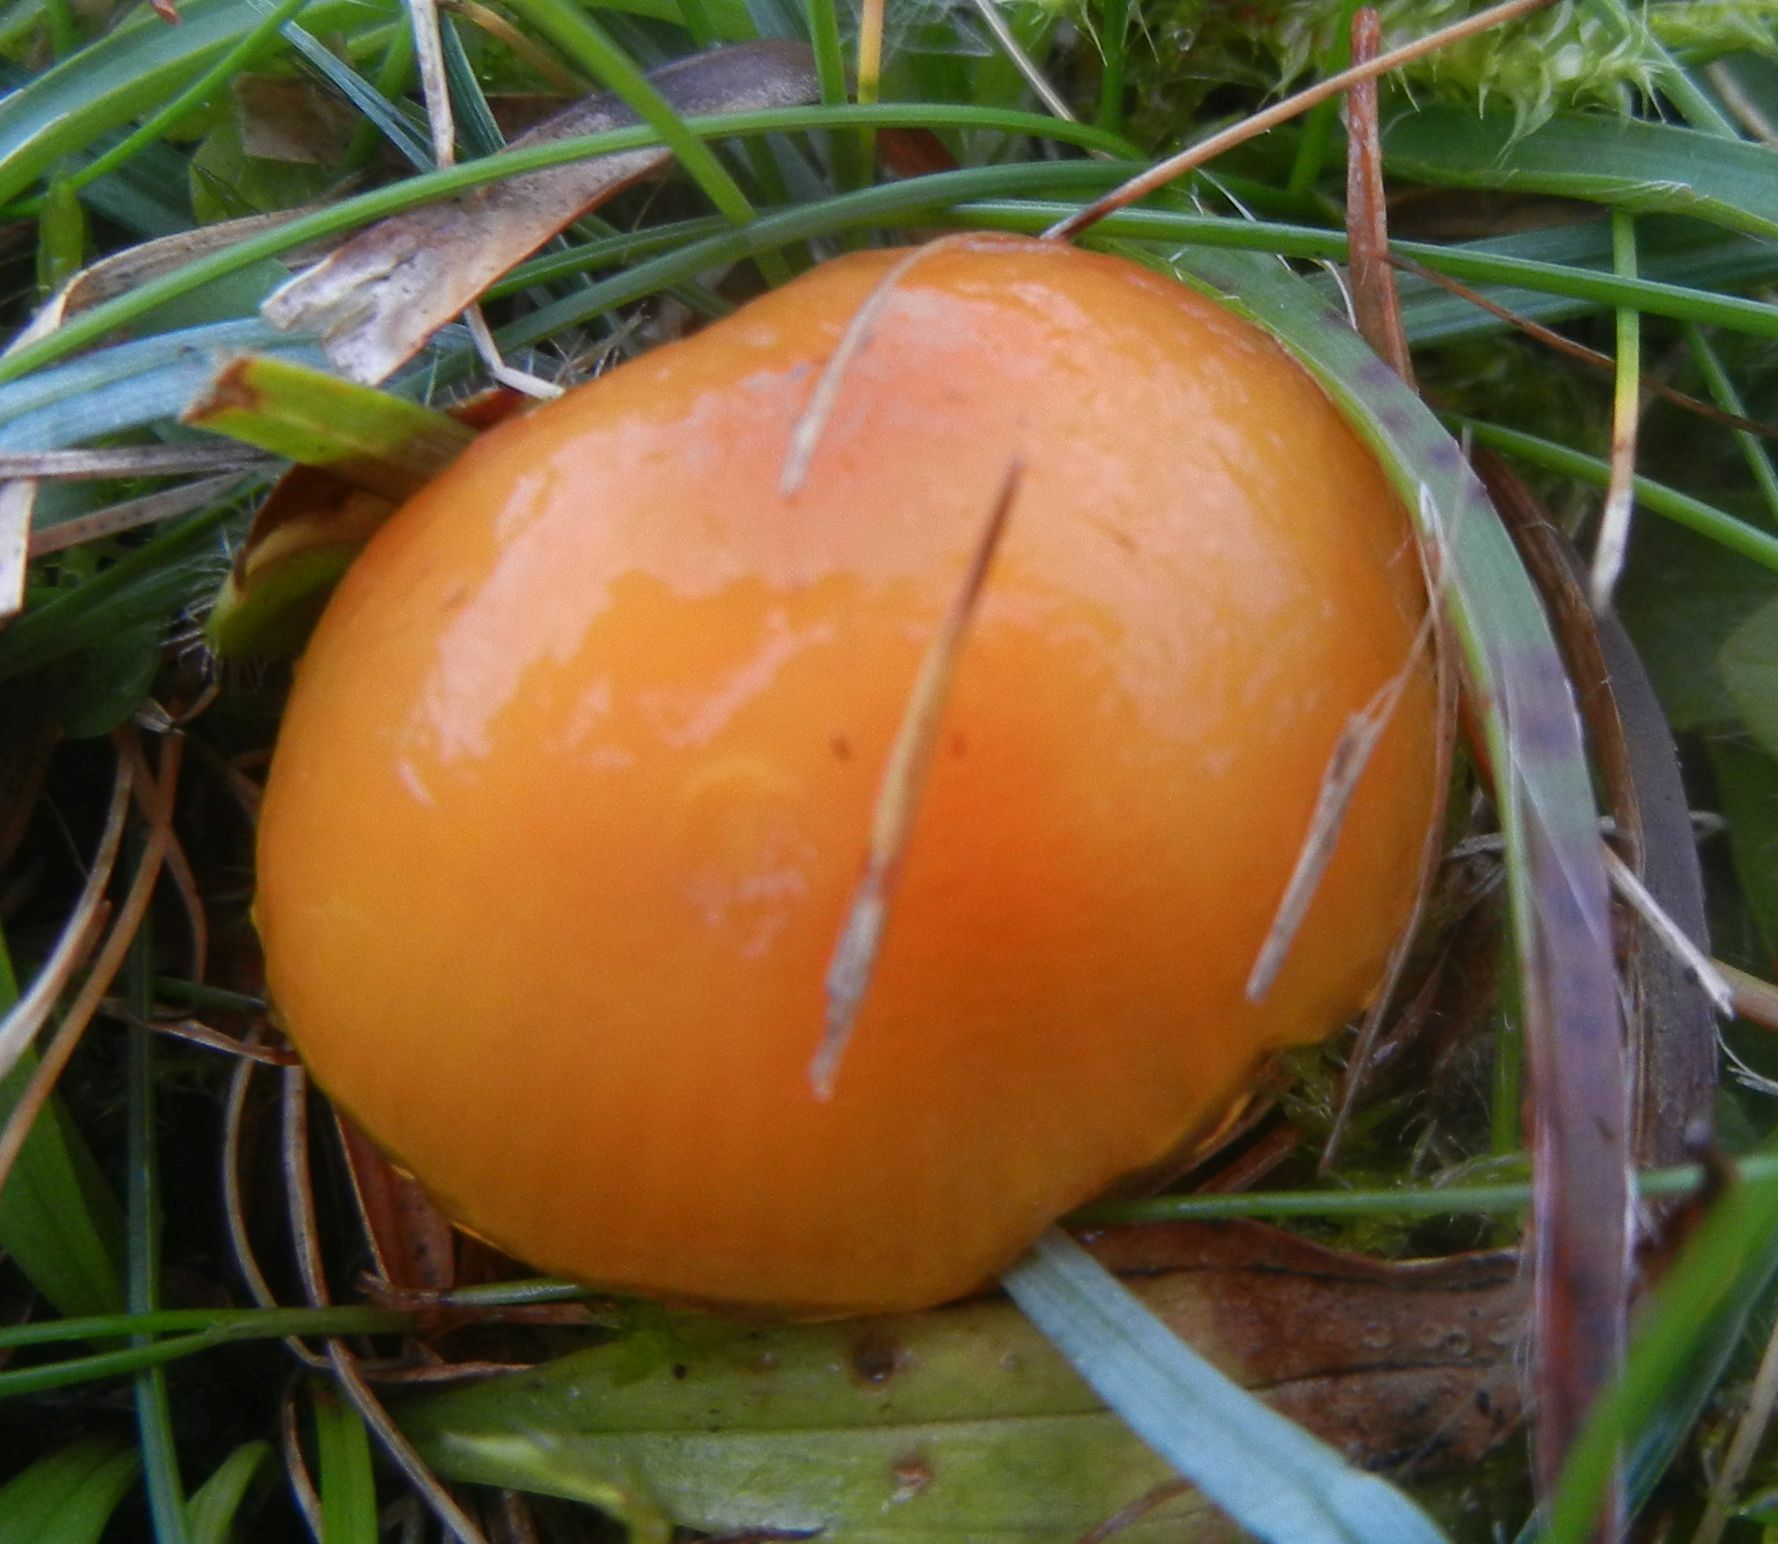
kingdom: Fungi
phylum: Basidiomycota
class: Agaricomycetes
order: Agaricales
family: Hygrophoraceae
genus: Hygrocybe
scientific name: Hygrocybe chlorophana
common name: Golden waxcap
